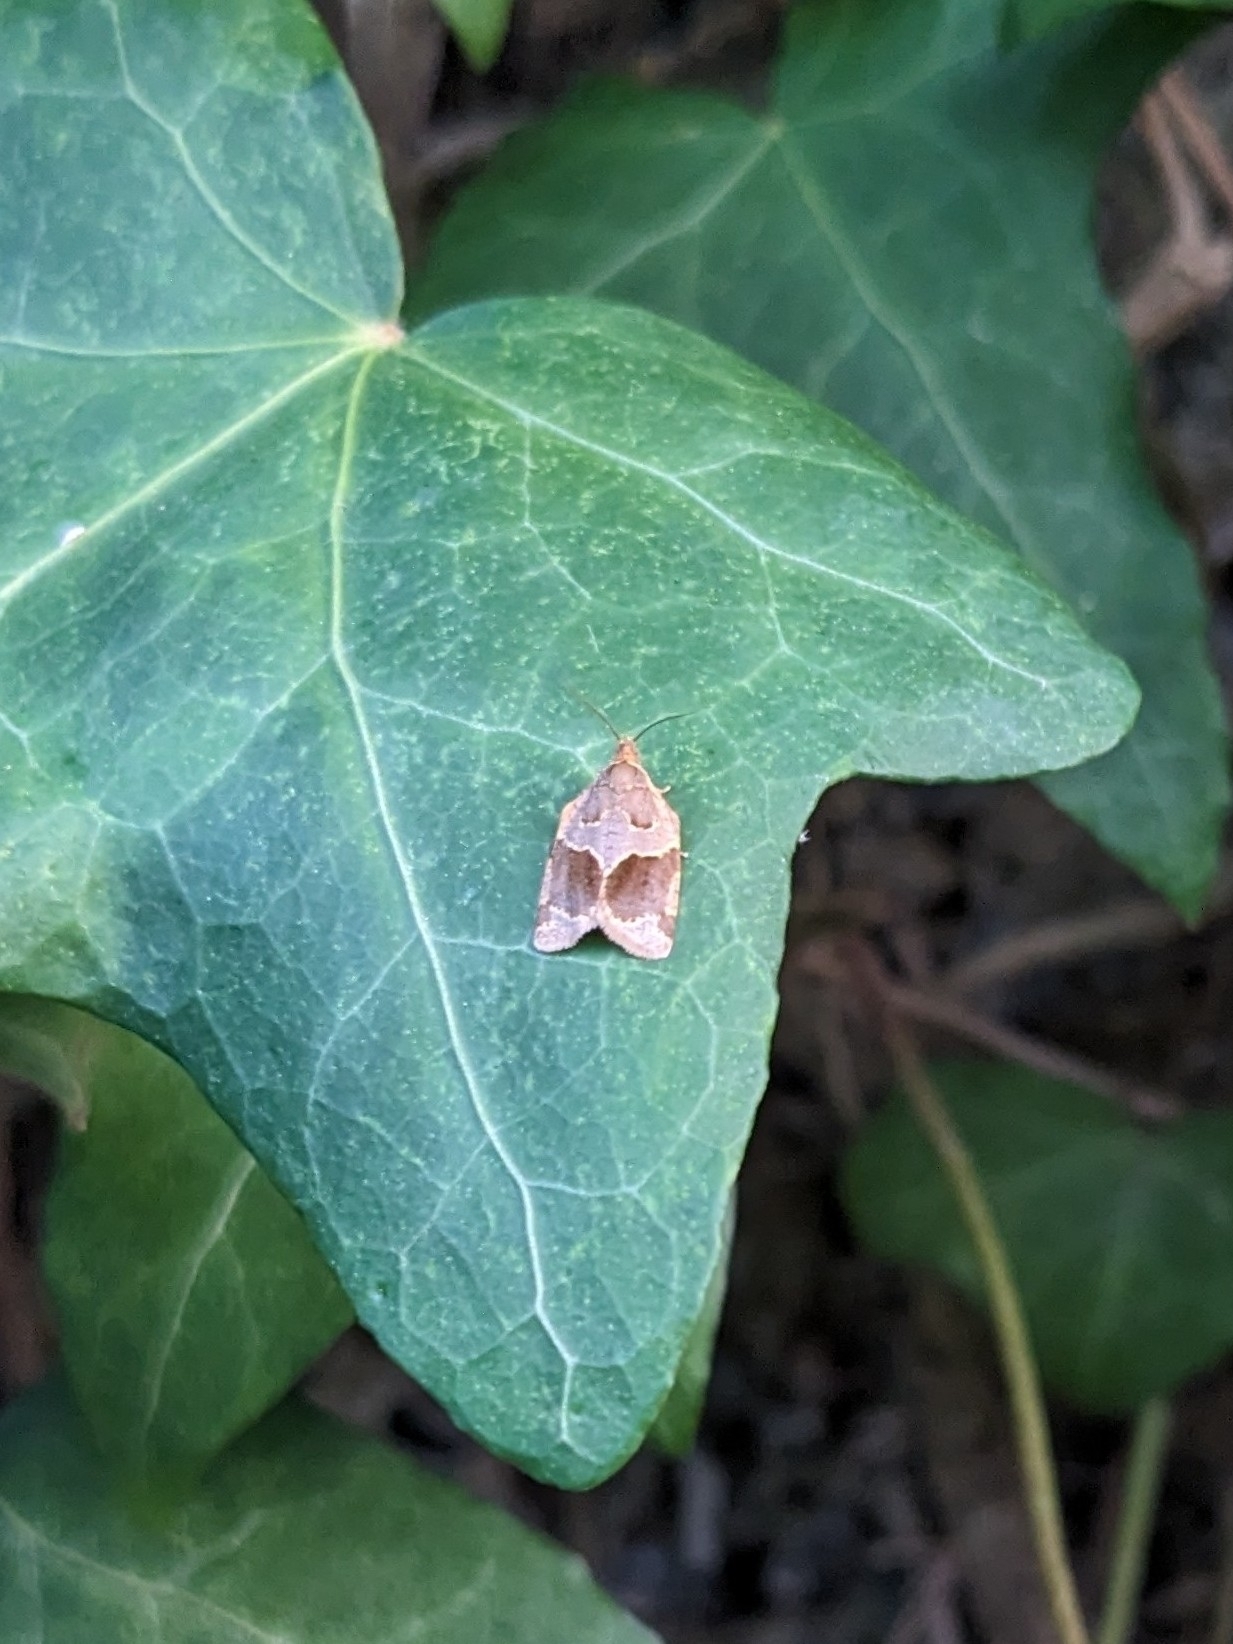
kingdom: Animalia
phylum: Arthropoda
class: Insecta
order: Lepidoptera
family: Tortricidae
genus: Clepsis
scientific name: Clepsis dumicolana
